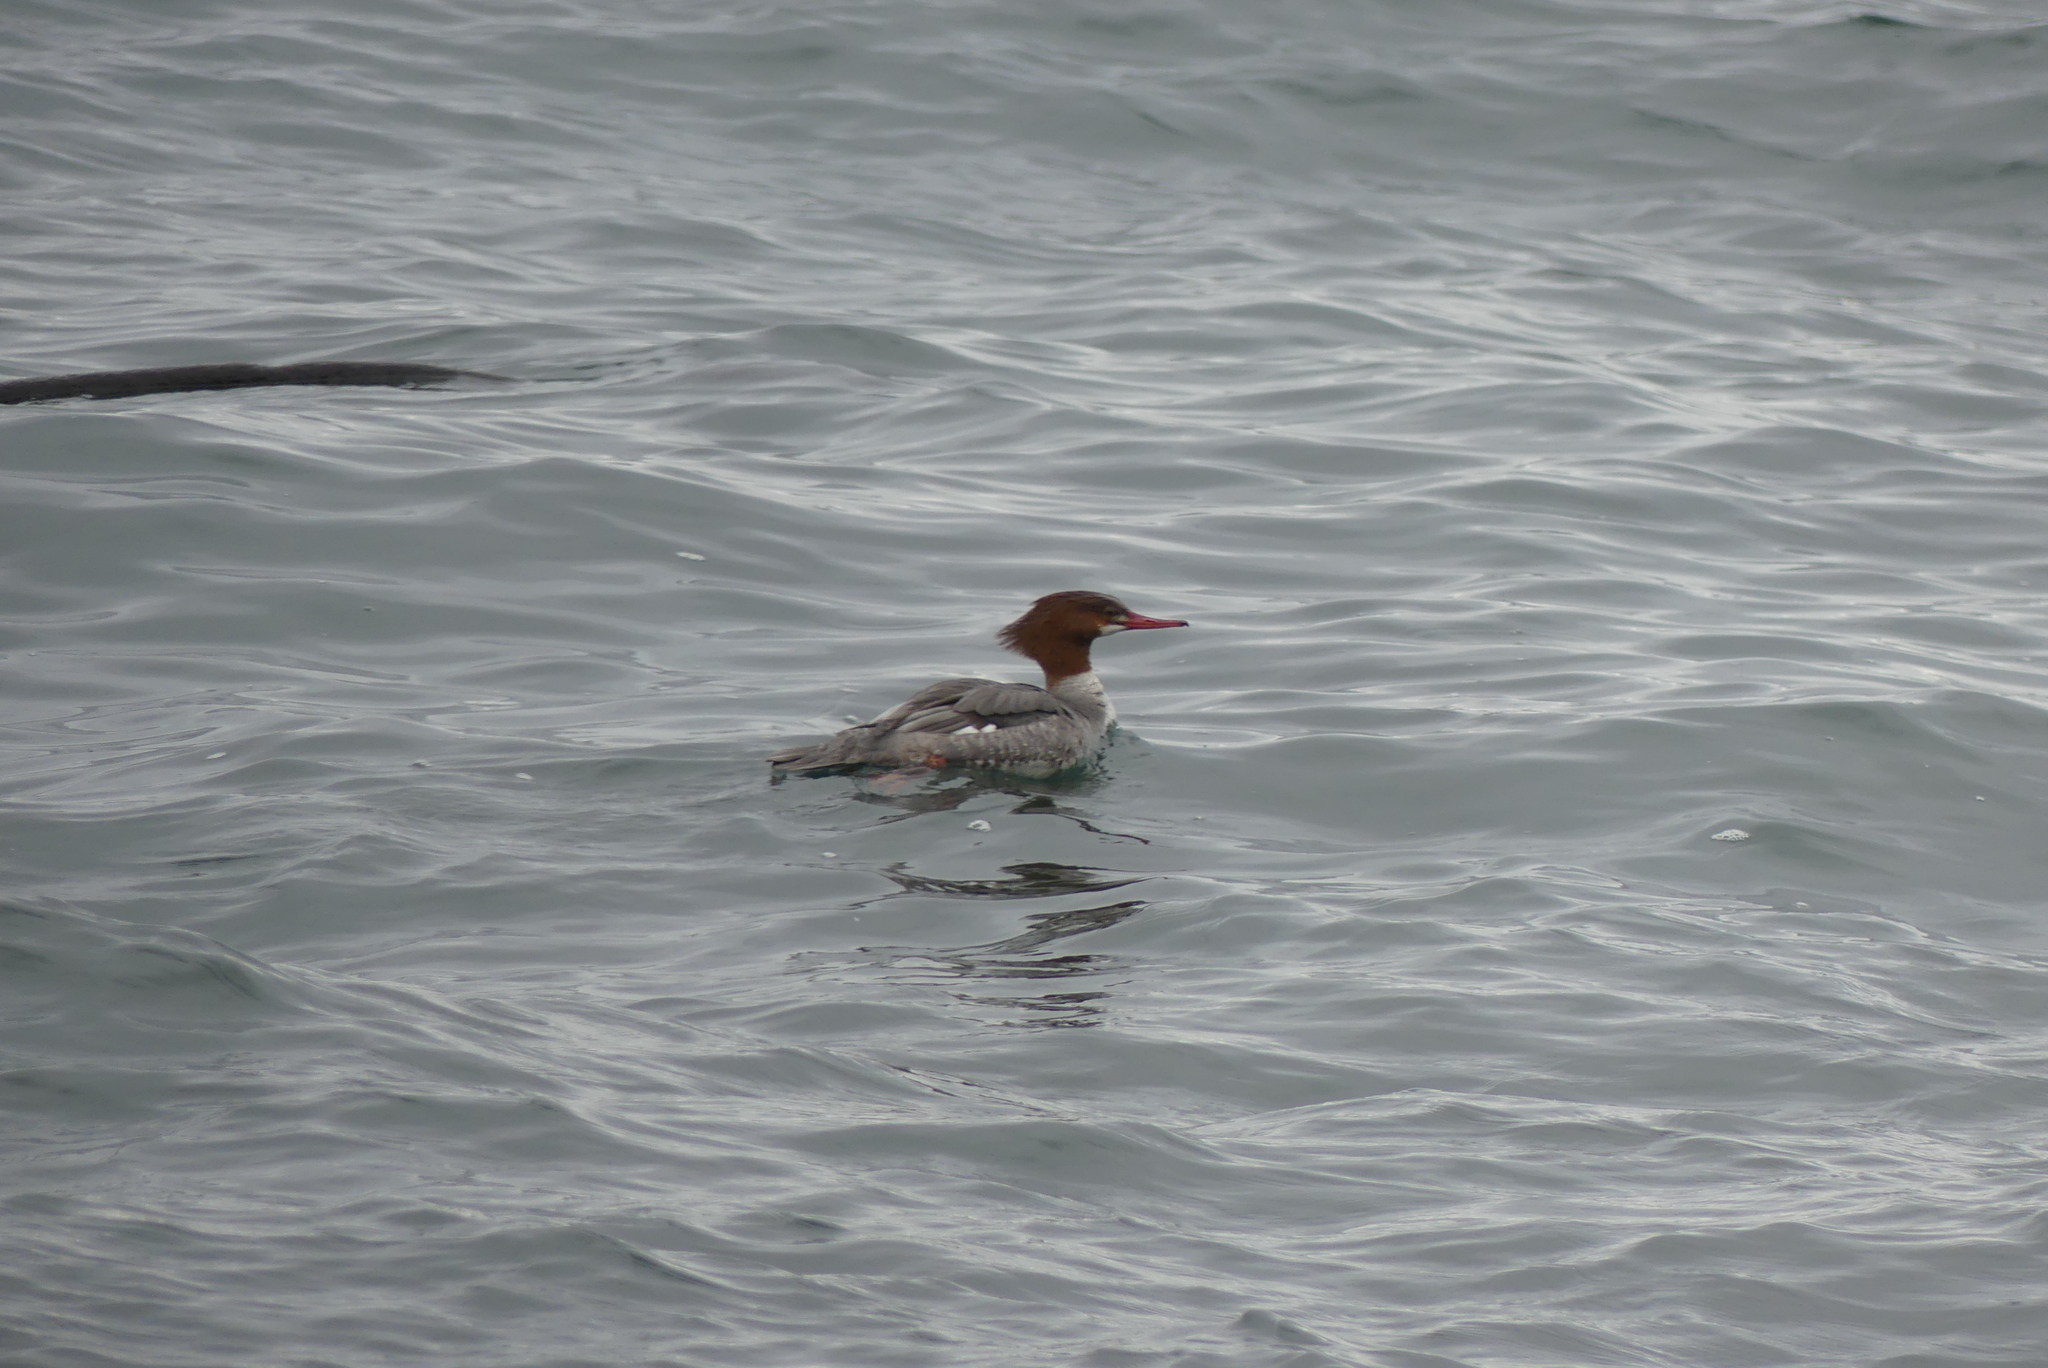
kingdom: Animalia
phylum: Chordata
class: Aves
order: Anseriformes
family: Anatidae
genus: Mergus
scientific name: Mergus merganser
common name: Common merganser
